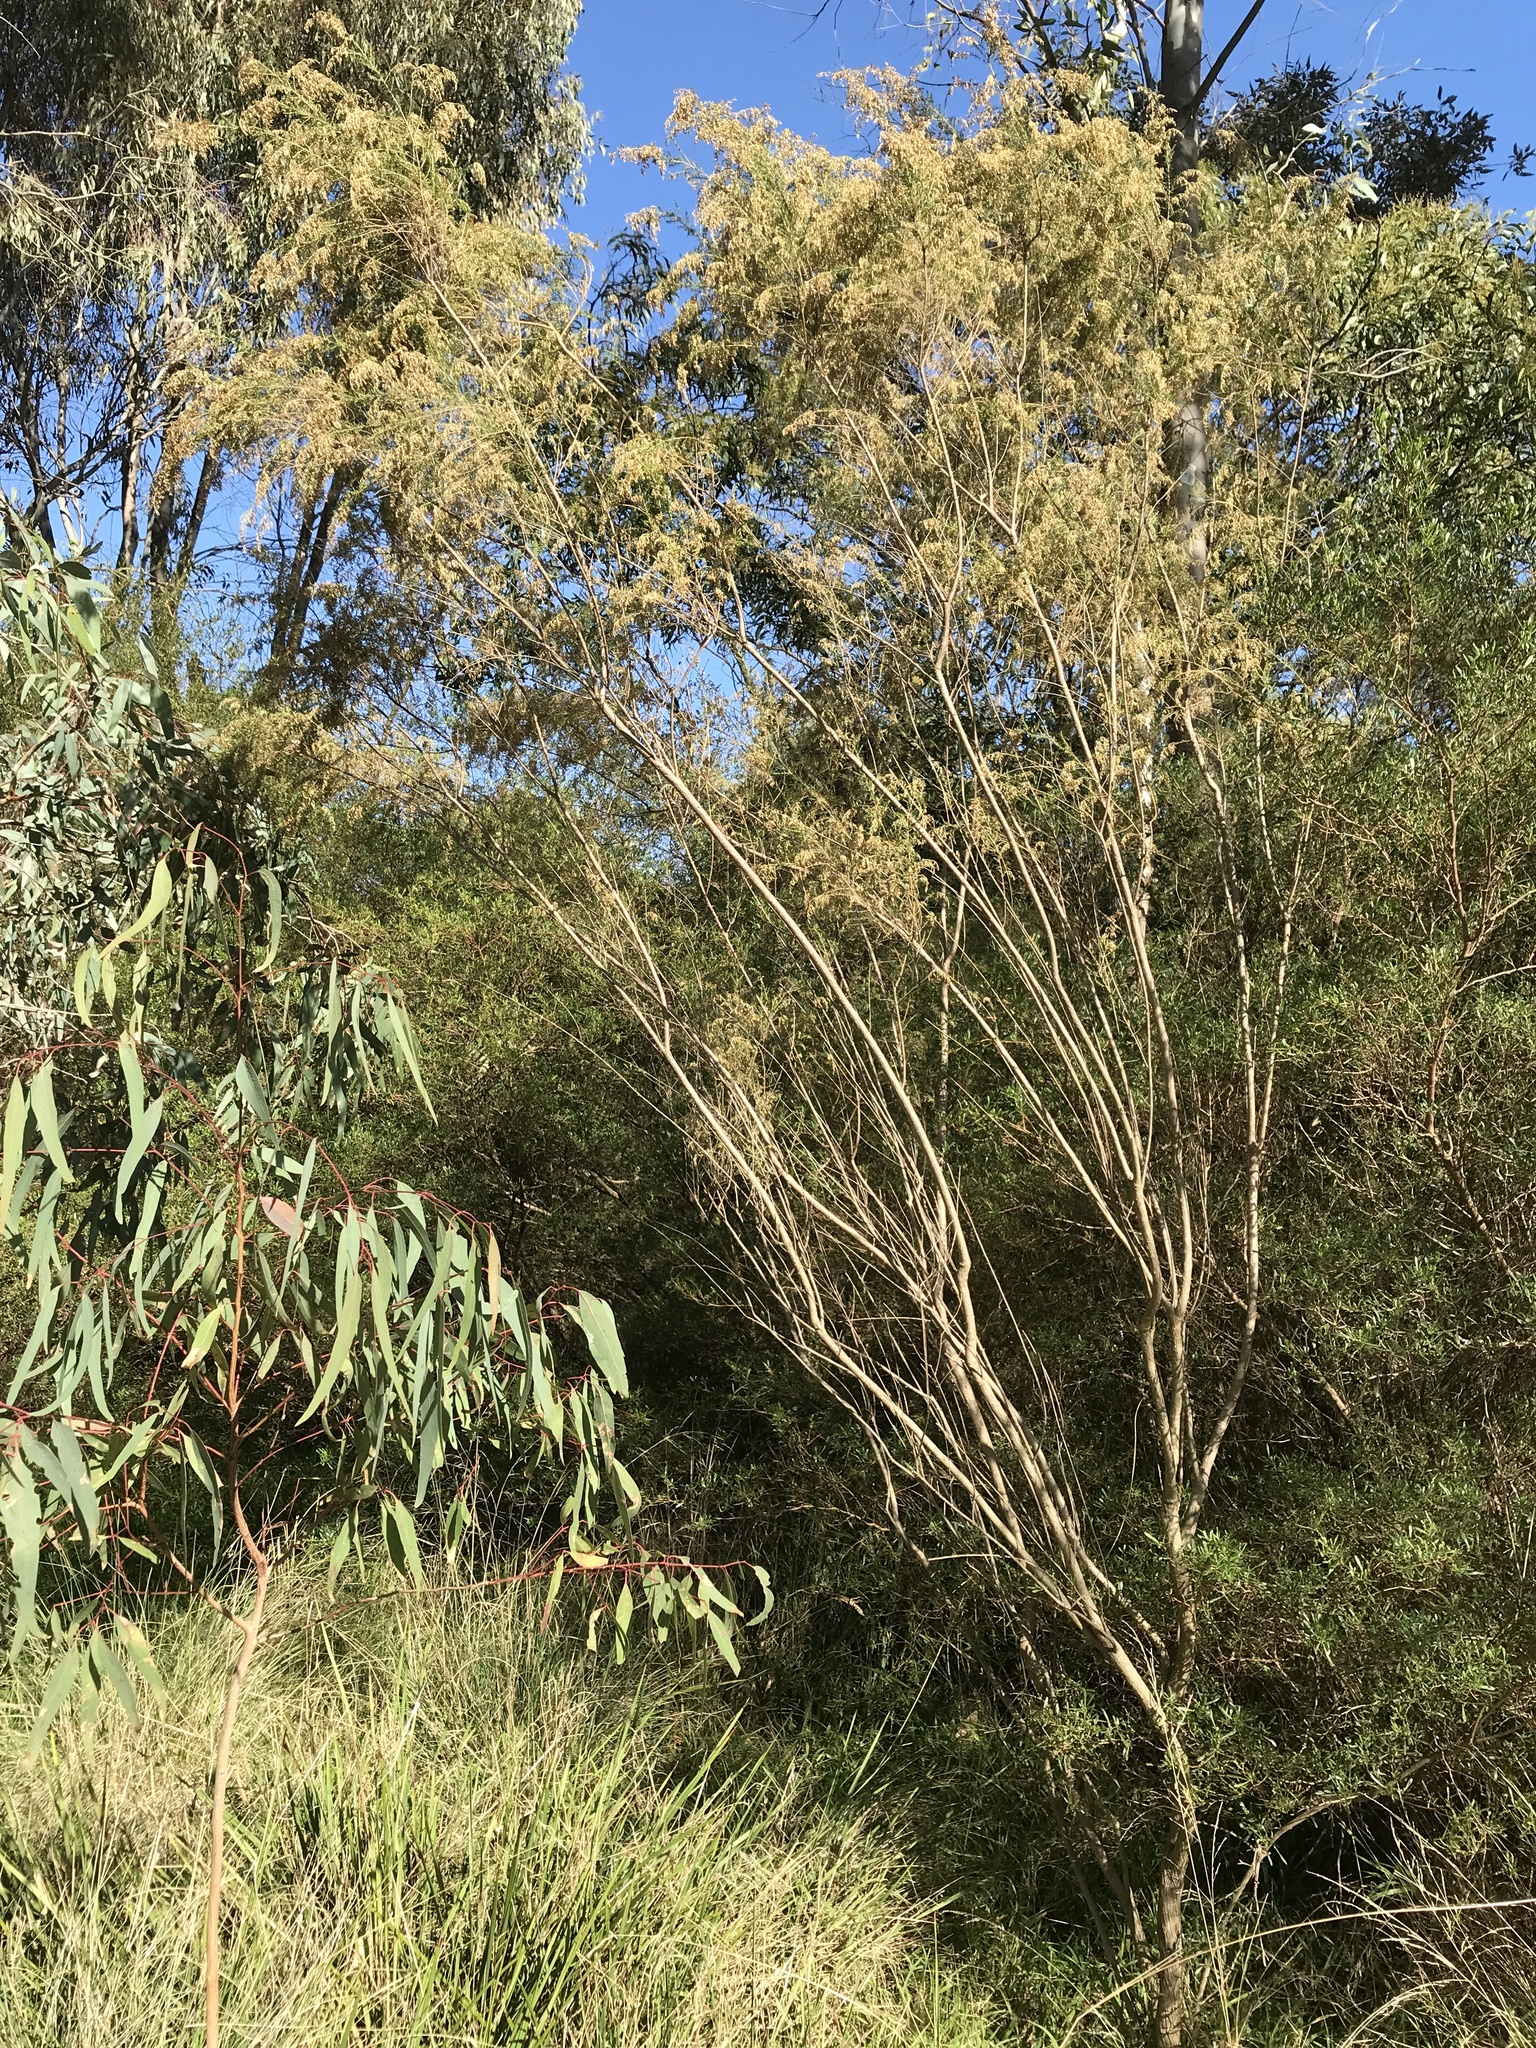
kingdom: Plantae
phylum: Tracheophyta
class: Magnoliopsida
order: Asterales
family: Asteraceae
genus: Cassinia
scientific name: Cassinia sifton
